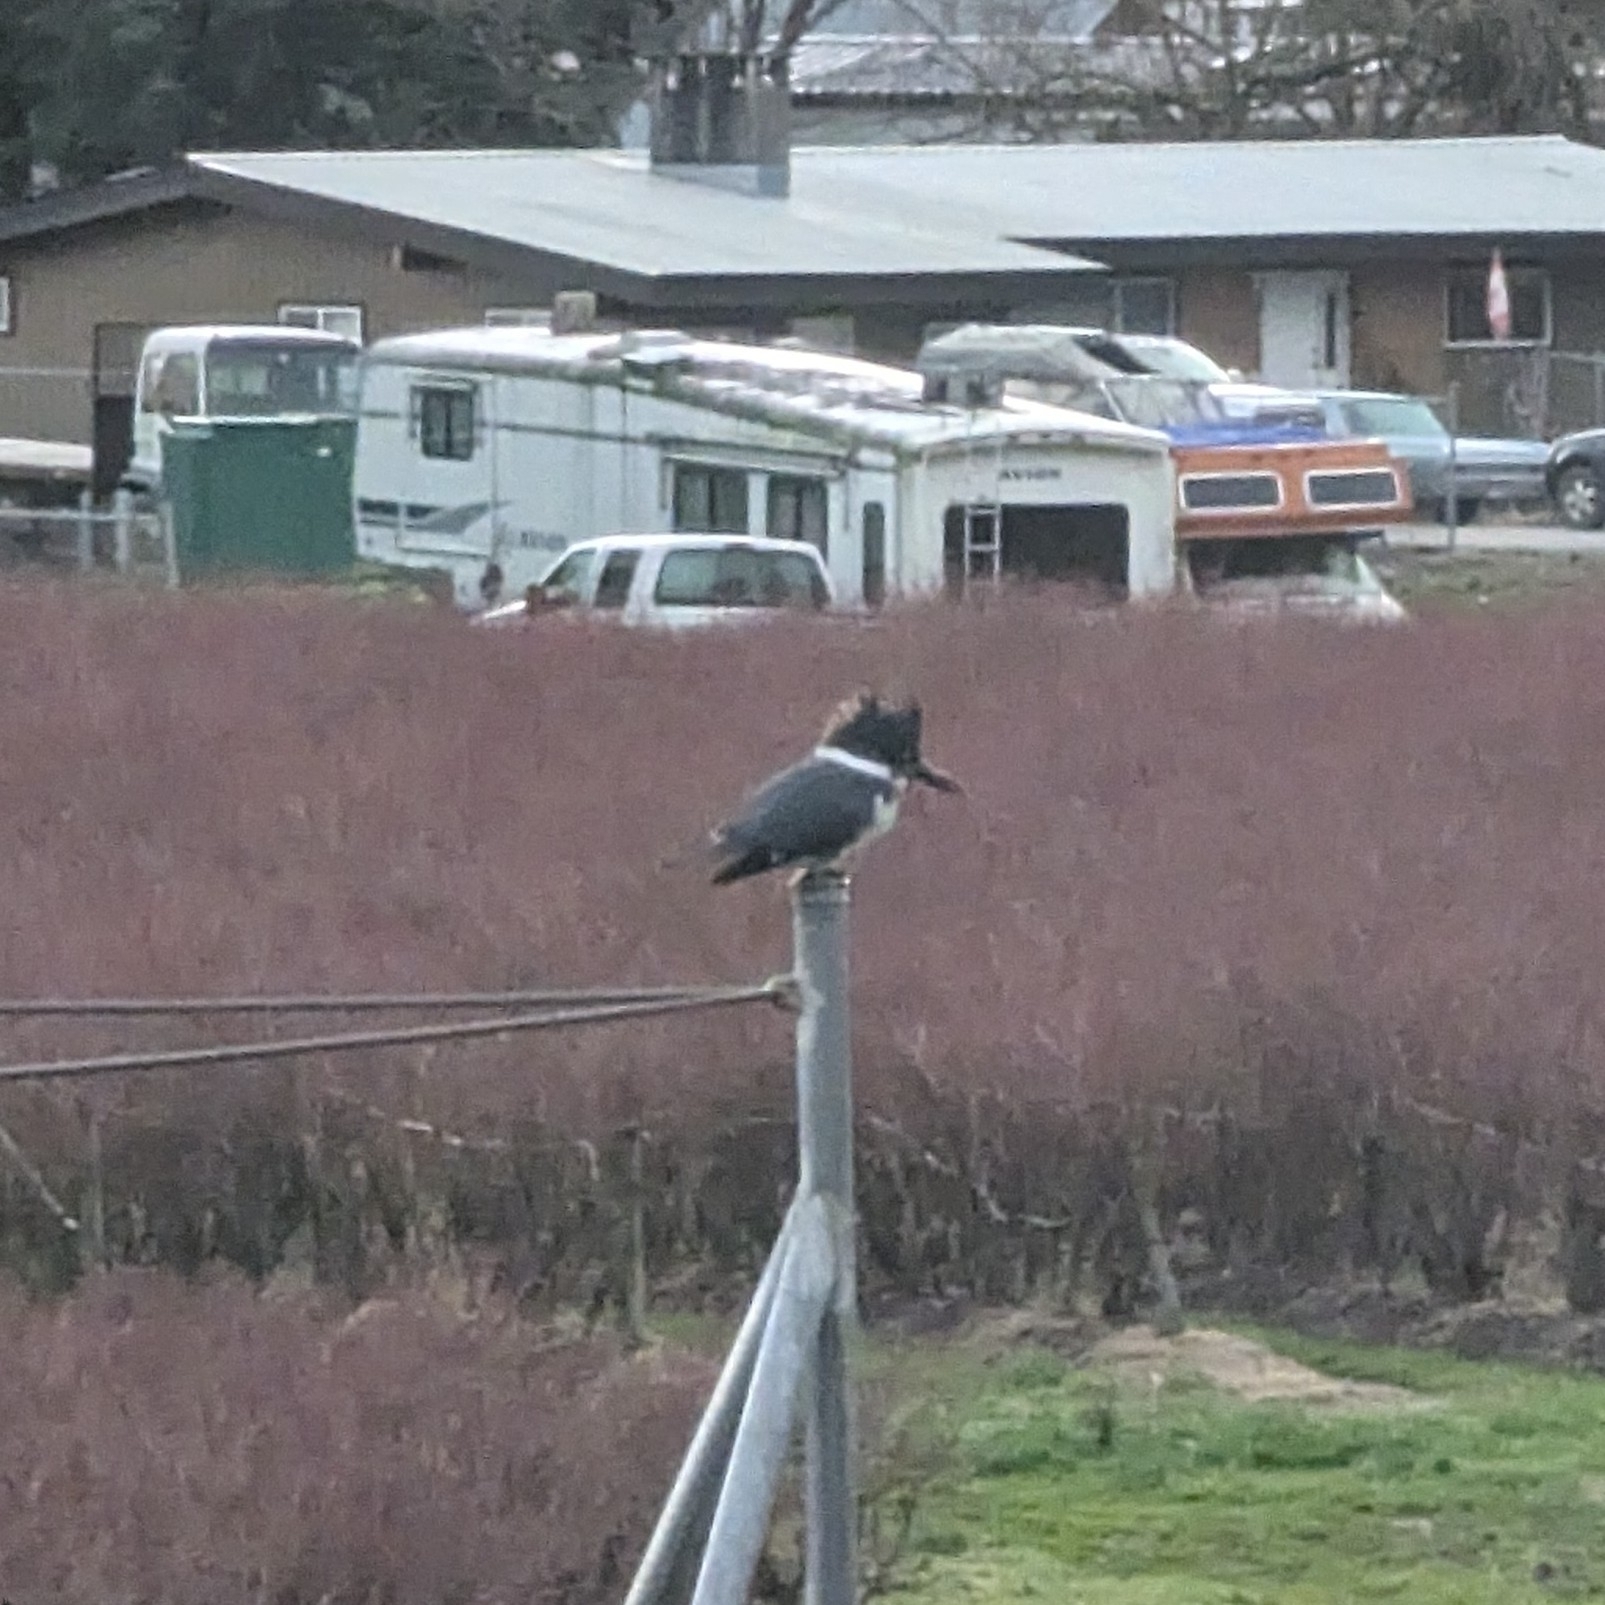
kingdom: Animalia
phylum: Chordata
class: Aves
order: Coraciiformes
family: Alcedinidae
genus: Megaceryle
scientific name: Megaceryle alcyon
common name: Belted kingfisher
